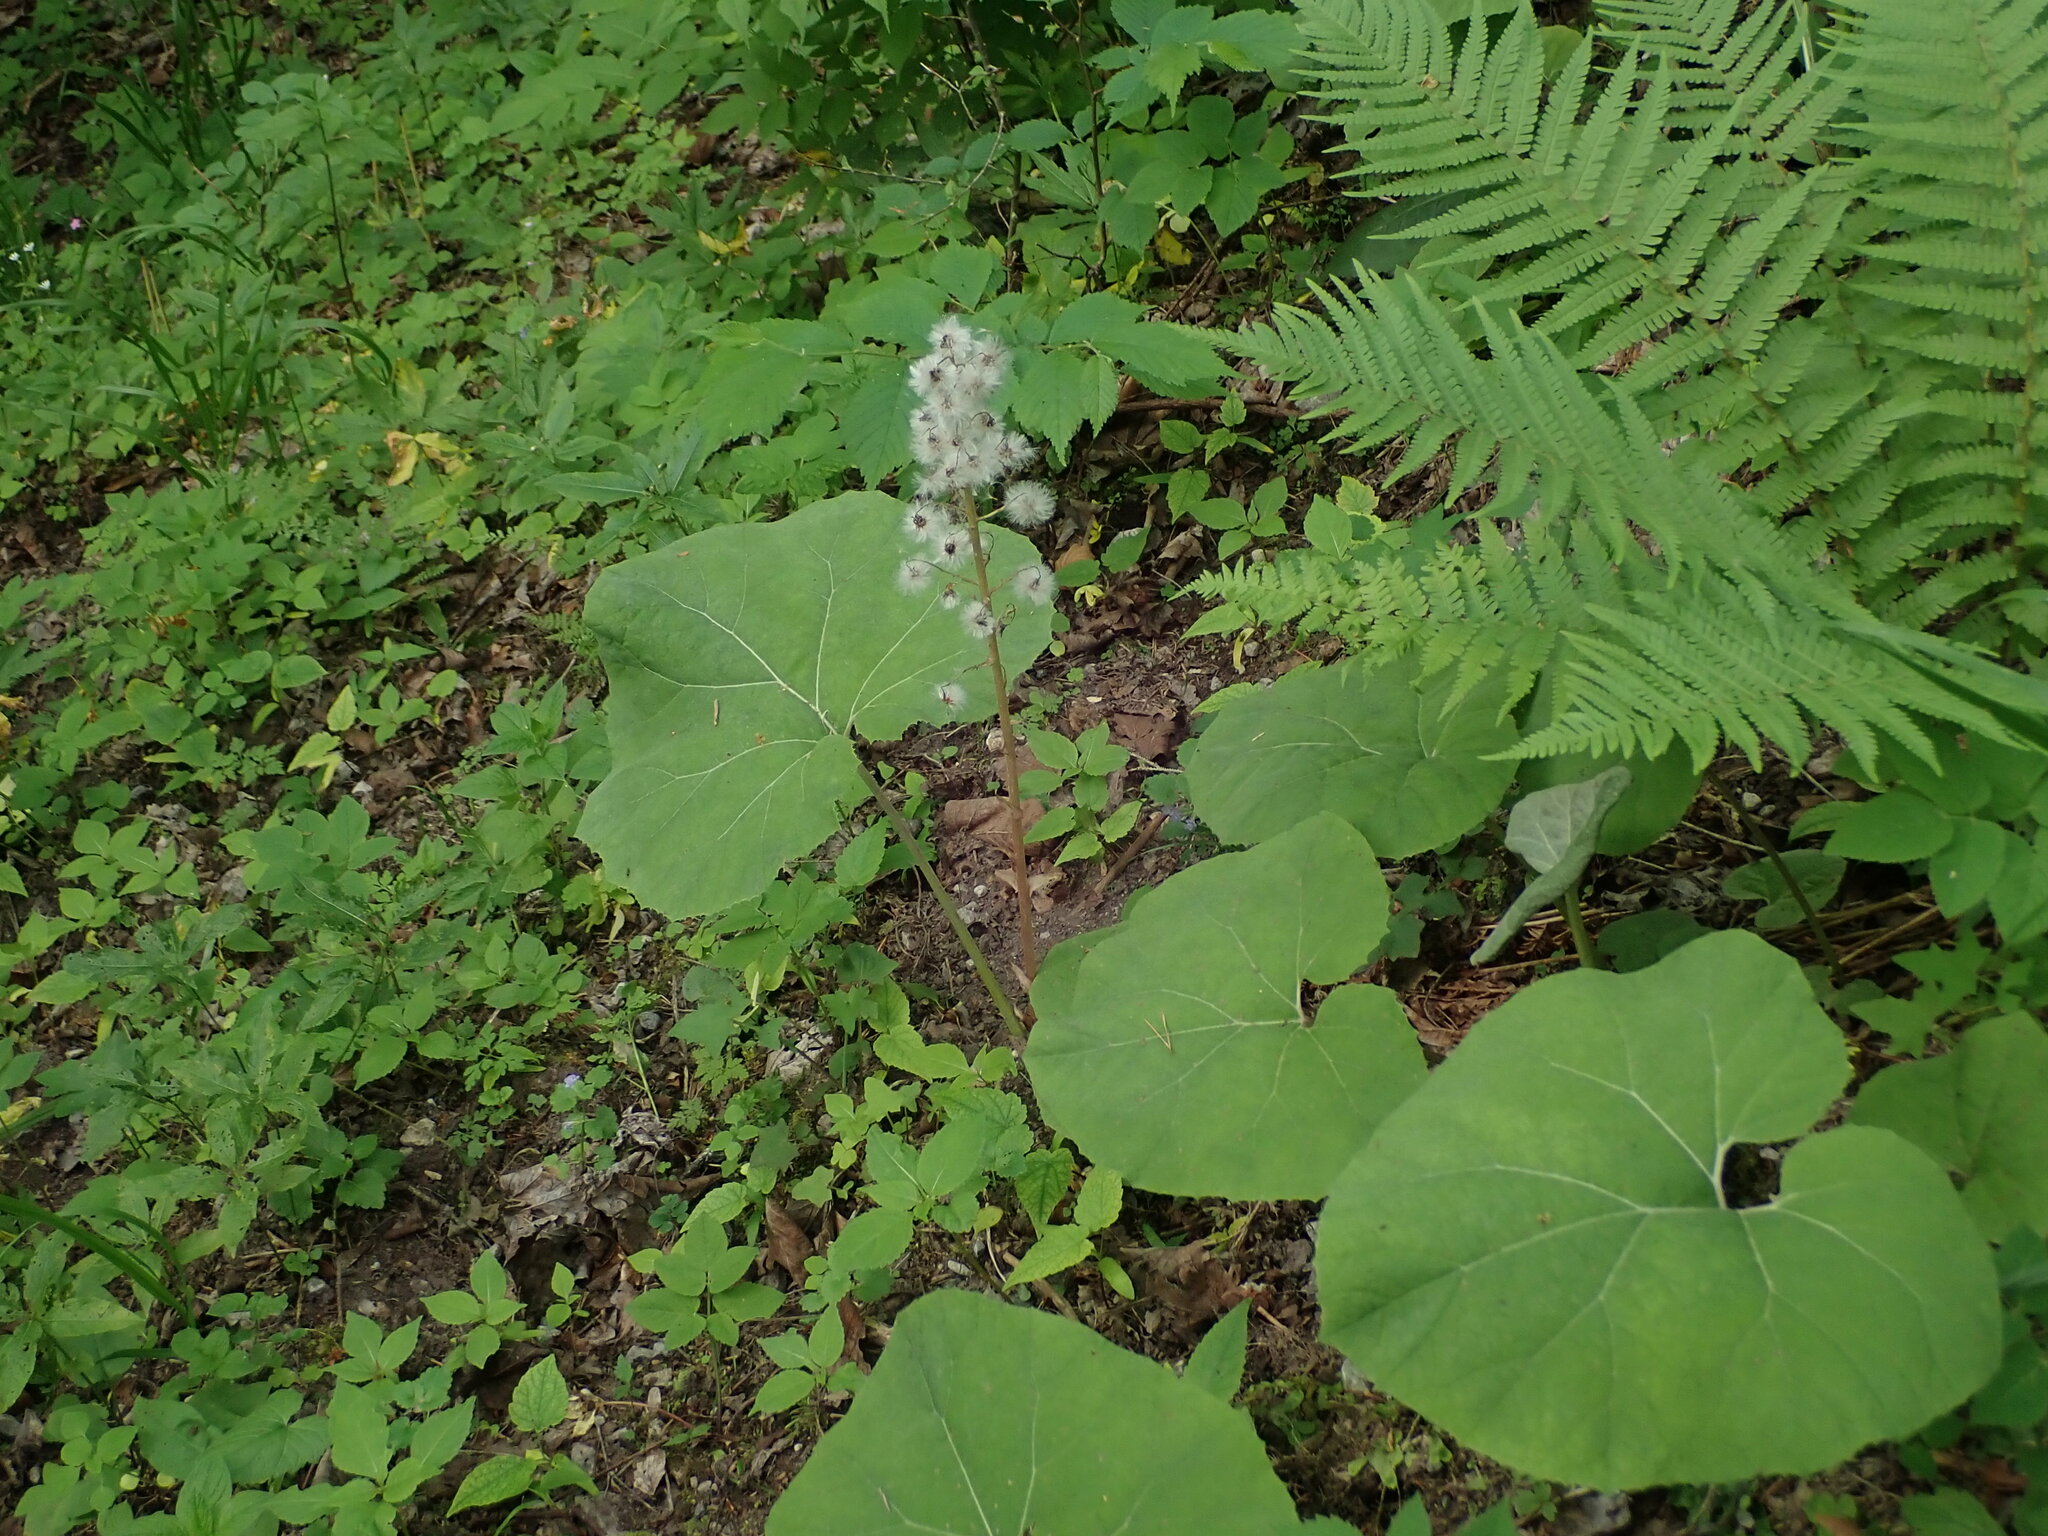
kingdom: Plantae
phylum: Tracheophyta
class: Magnoliopsida
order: Asterales
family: Asteraceae
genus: Petasites
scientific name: Petasites albus
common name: White butterbur
